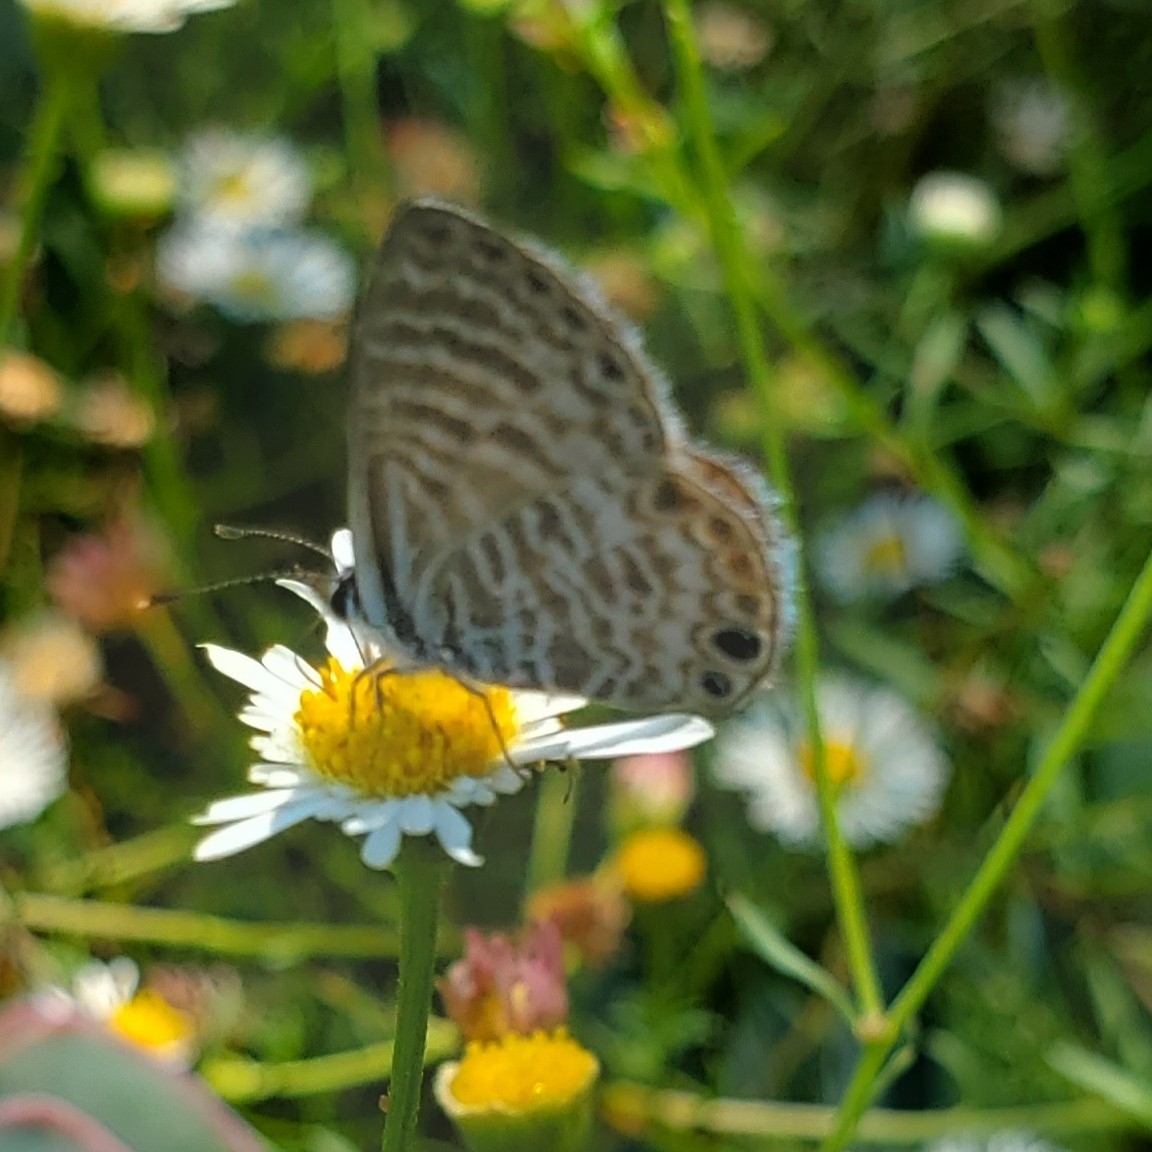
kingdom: Animalia
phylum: Arthropoda
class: Insecta
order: Lepidoptera
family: Lycaenidae
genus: Leptotes
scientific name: Leptotes marina
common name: Marine blue
